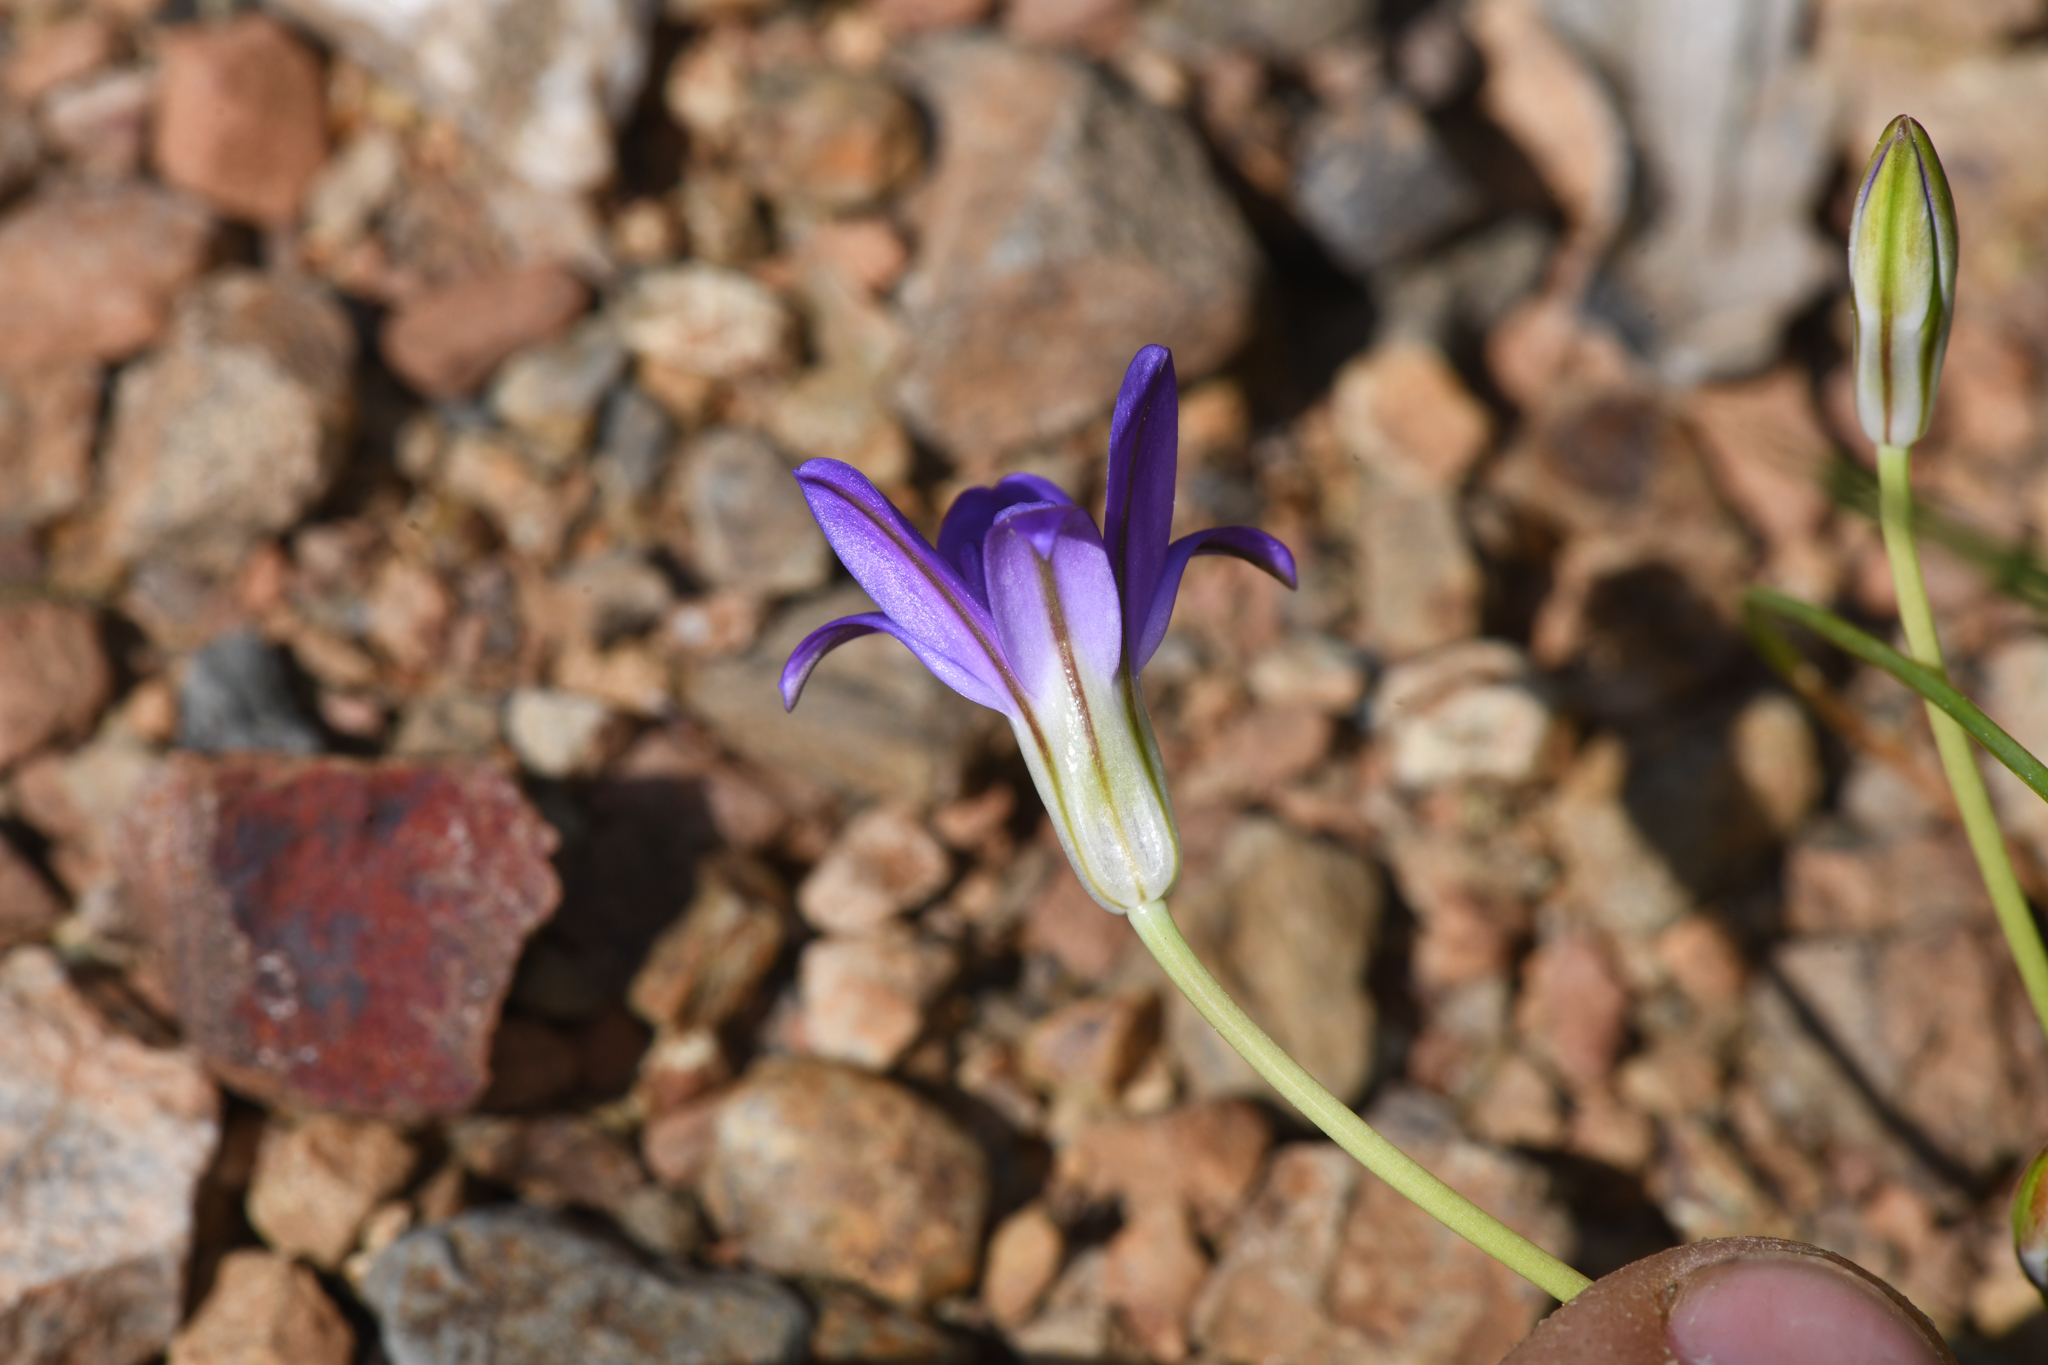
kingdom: Plantae
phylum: Tracheophyta
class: Liliopsida
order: Asparagales
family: Asparagaceae
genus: Brodiaea
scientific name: Brodiaea jolonensis
